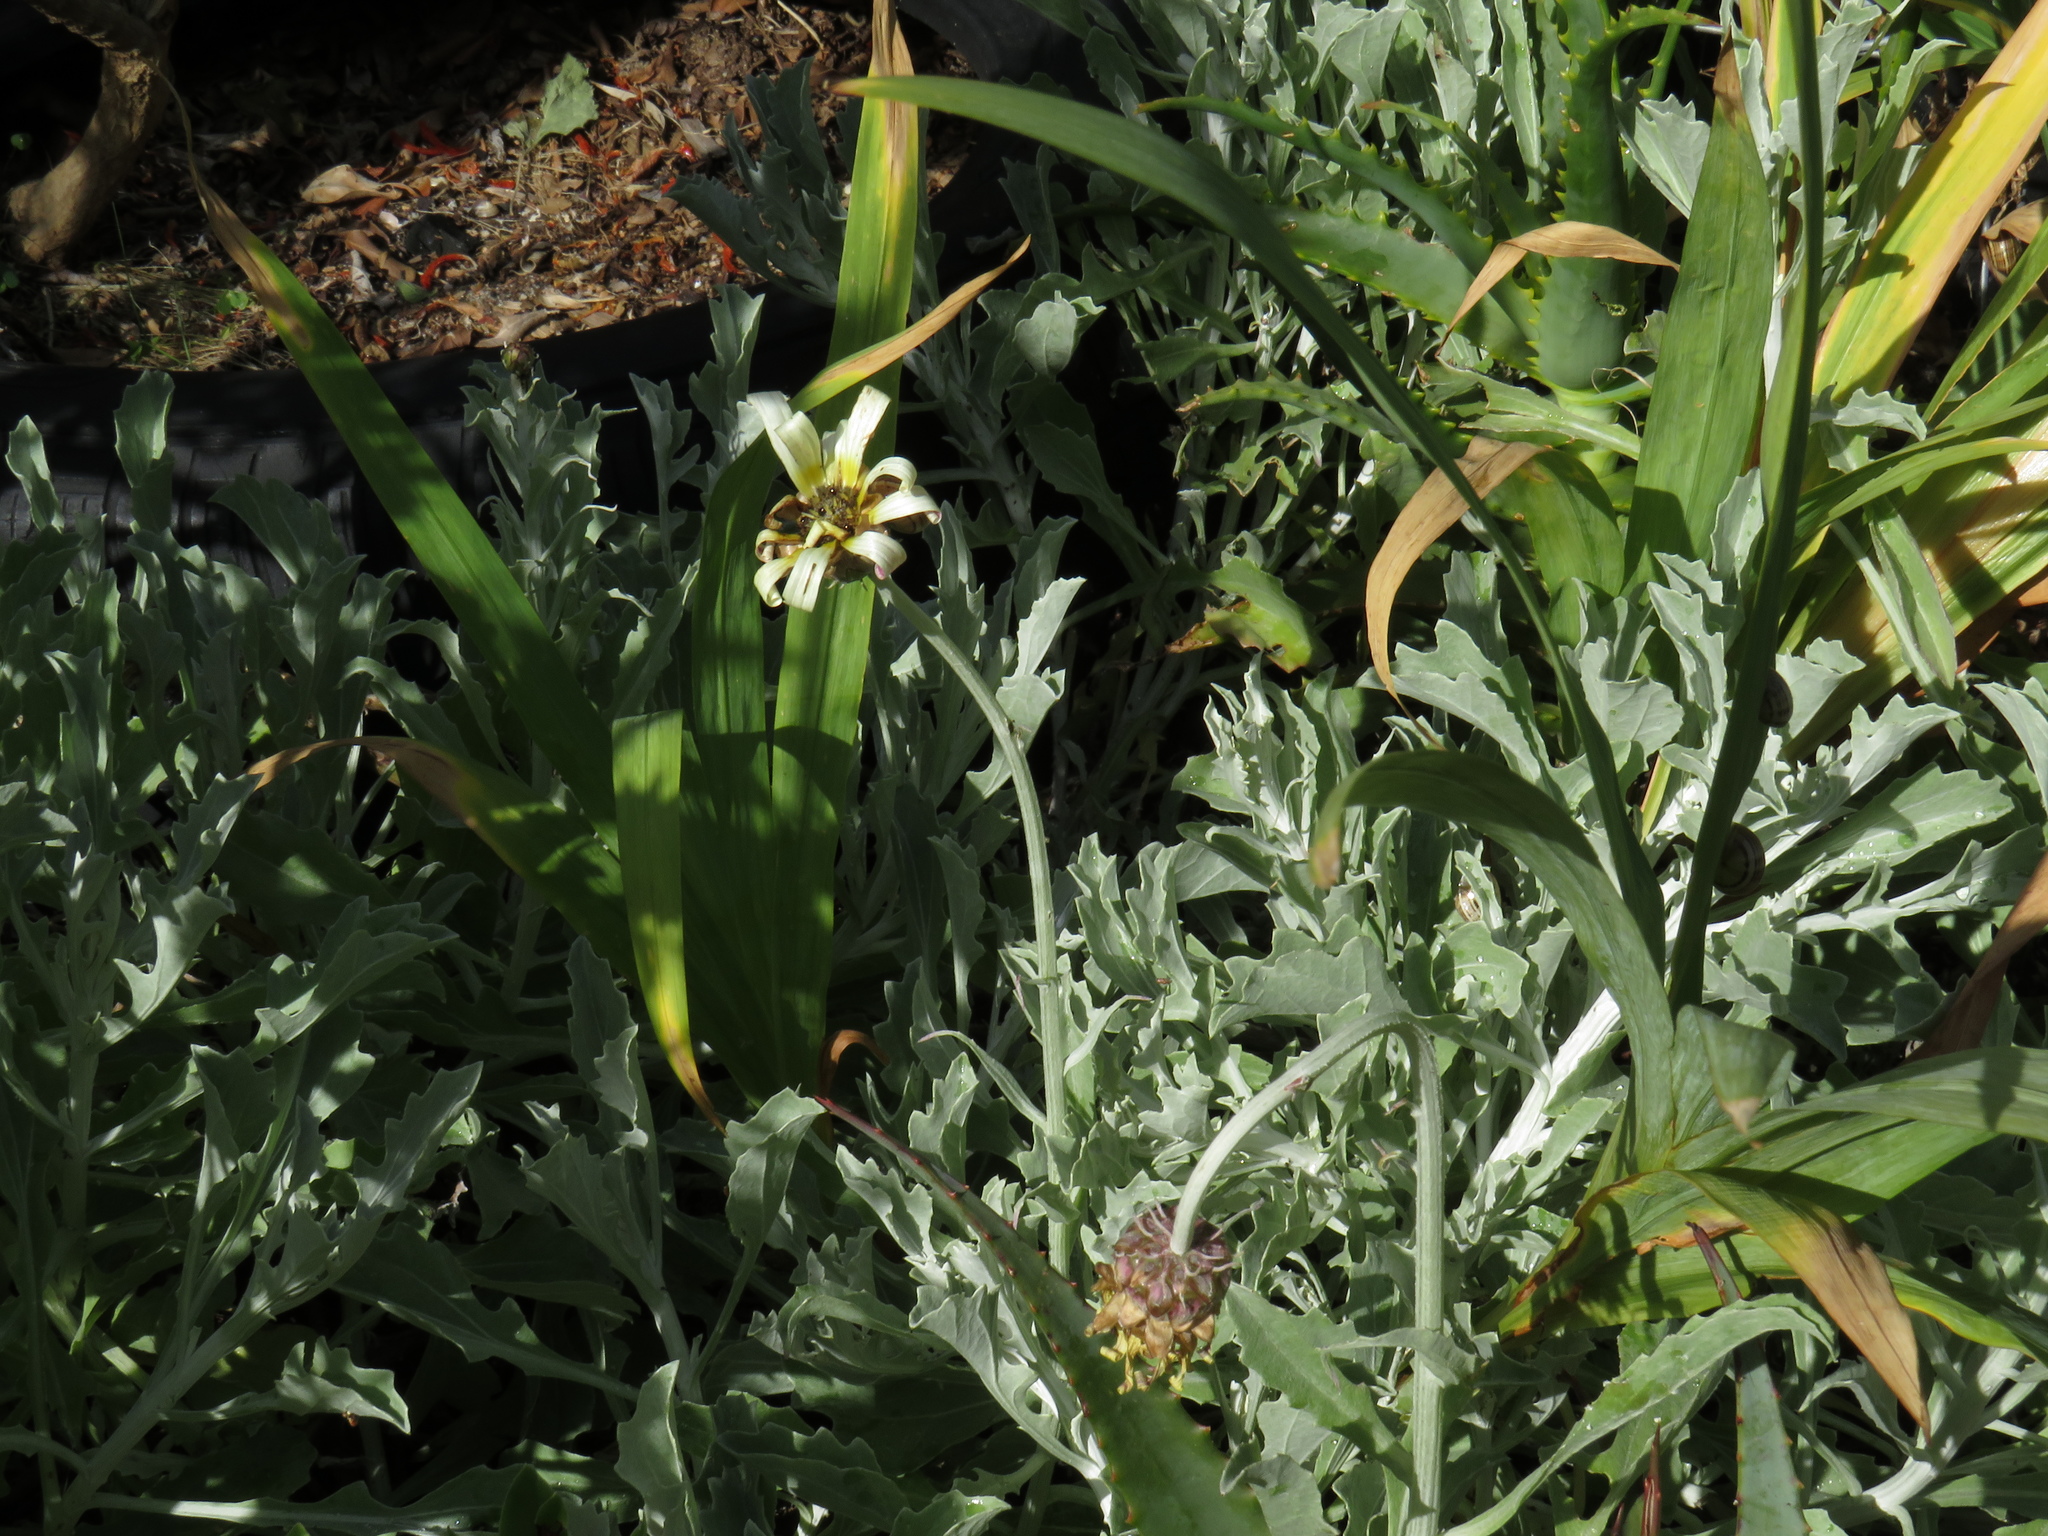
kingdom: Plantae
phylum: Tracheophyta
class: Magnoliopsida
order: Asterales
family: Asteraceae
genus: Arctotis
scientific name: Arctotis stoechadifolia
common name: African daisy
